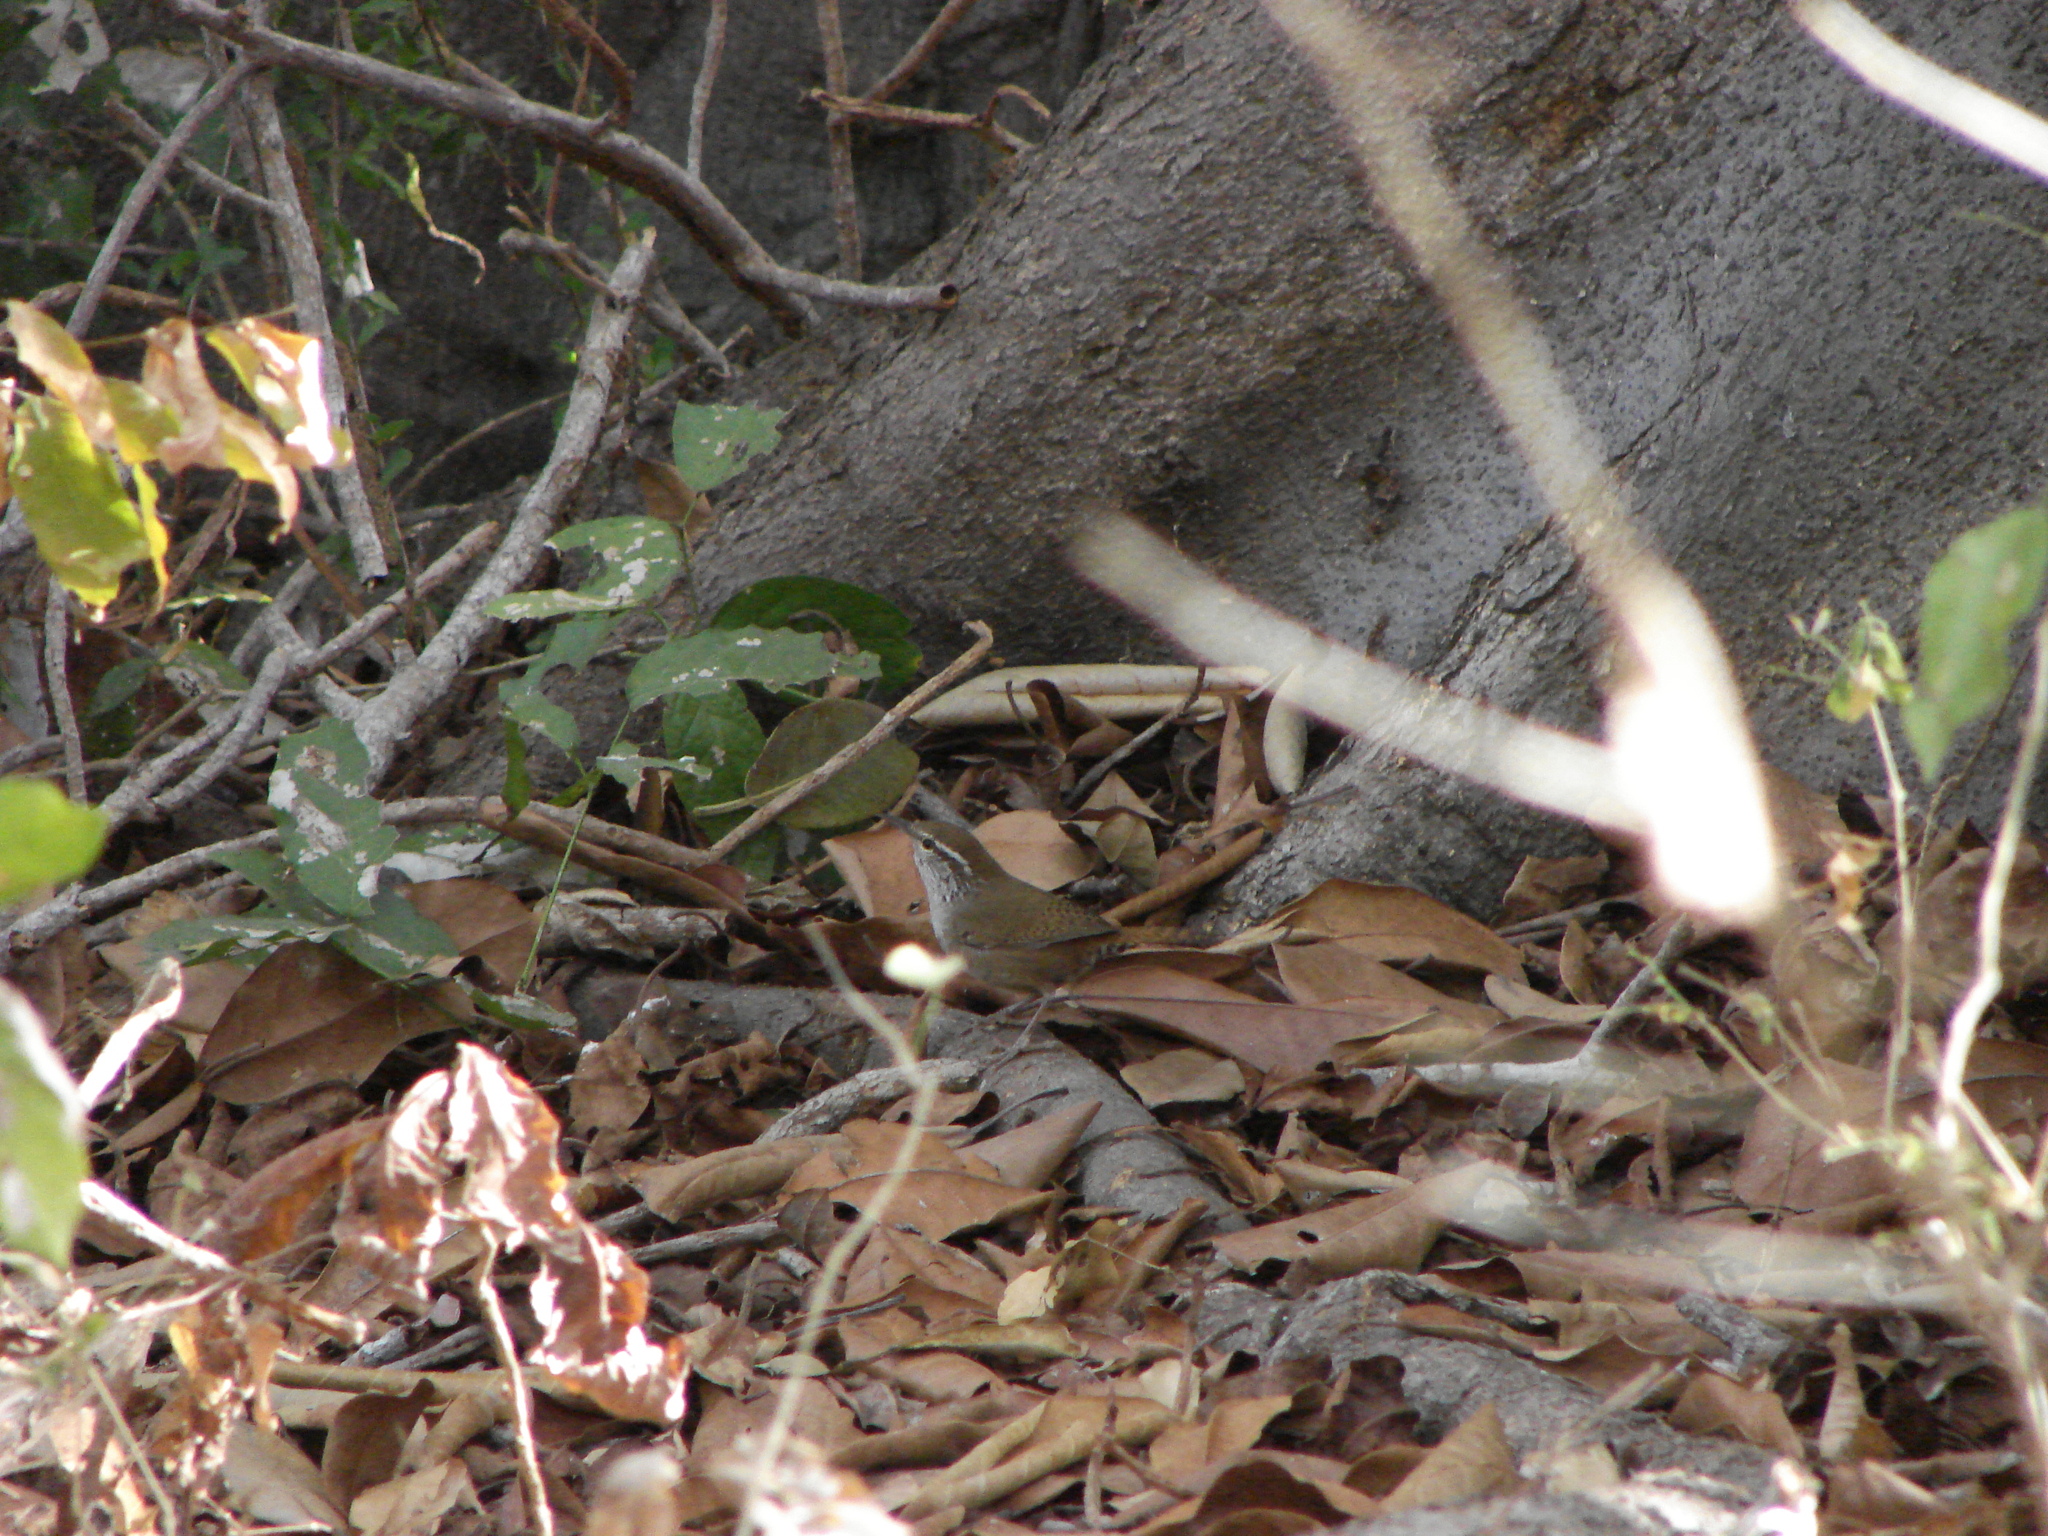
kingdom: Animalia
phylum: Chordata
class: Aves
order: Passeriformes
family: Troglodytidae
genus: Thryophilus
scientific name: Thryophilus sinaloa
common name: Sinaloa wren
